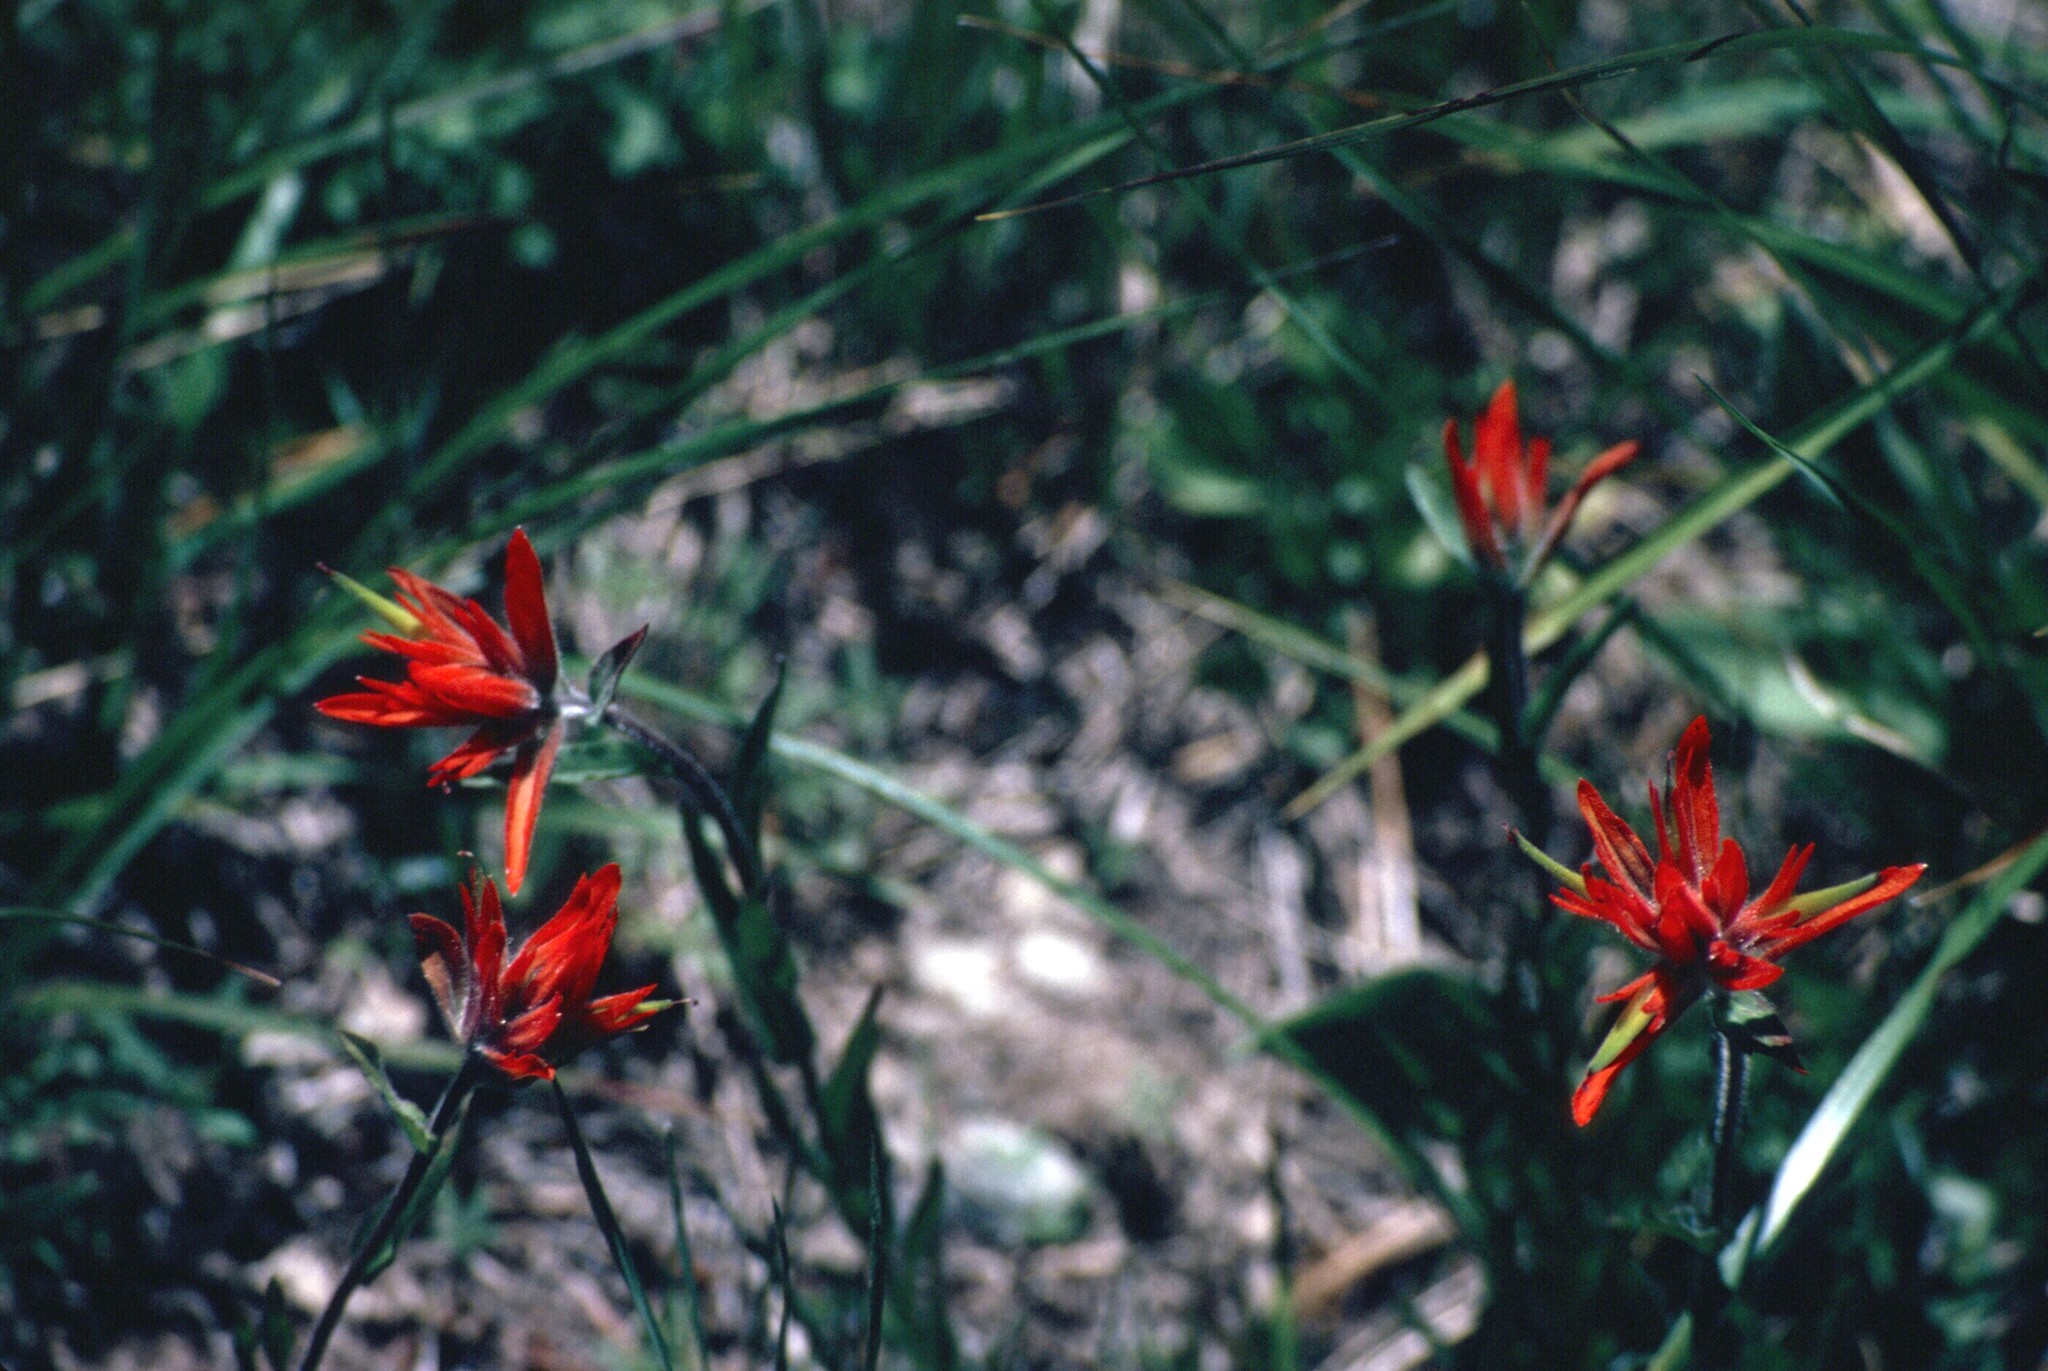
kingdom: Plantae
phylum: Tracheophyta
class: Magnoliopsida
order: Lamiales
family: Orobanchaceae
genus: Castilleja
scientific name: Castilleja miniata
